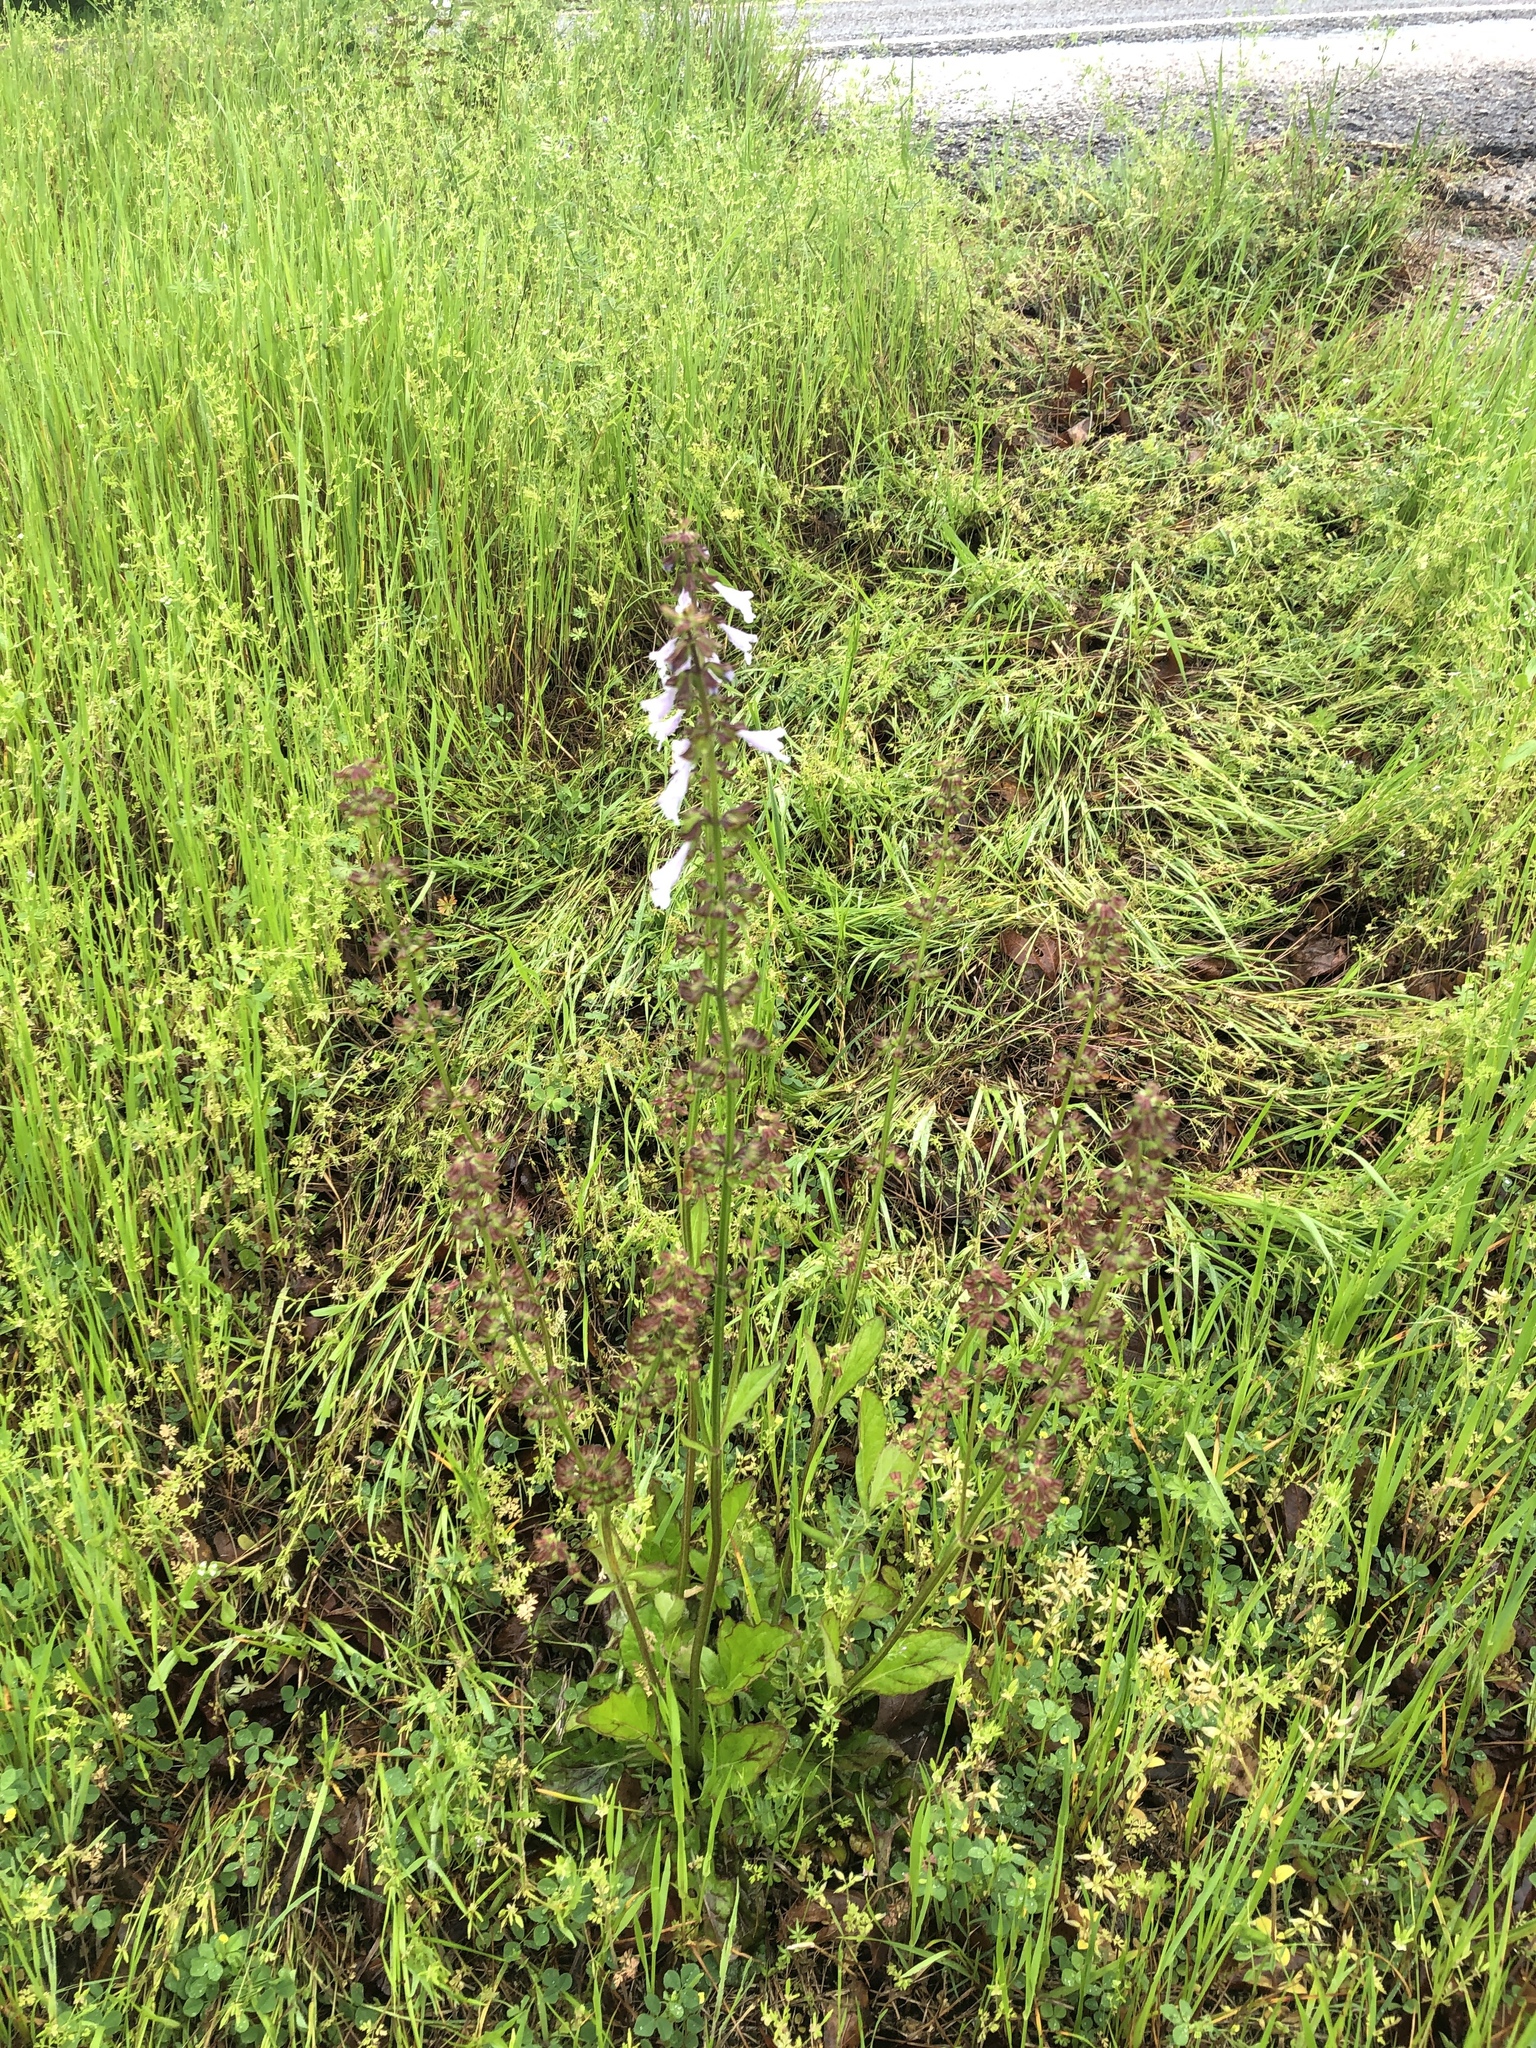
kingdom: Plantae
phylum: Tracheophyta
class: Magnoliopsida
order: Lamiales
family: Lamiaceae
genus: Salvia
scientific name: Salvia lyrata
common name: Cancerweed
